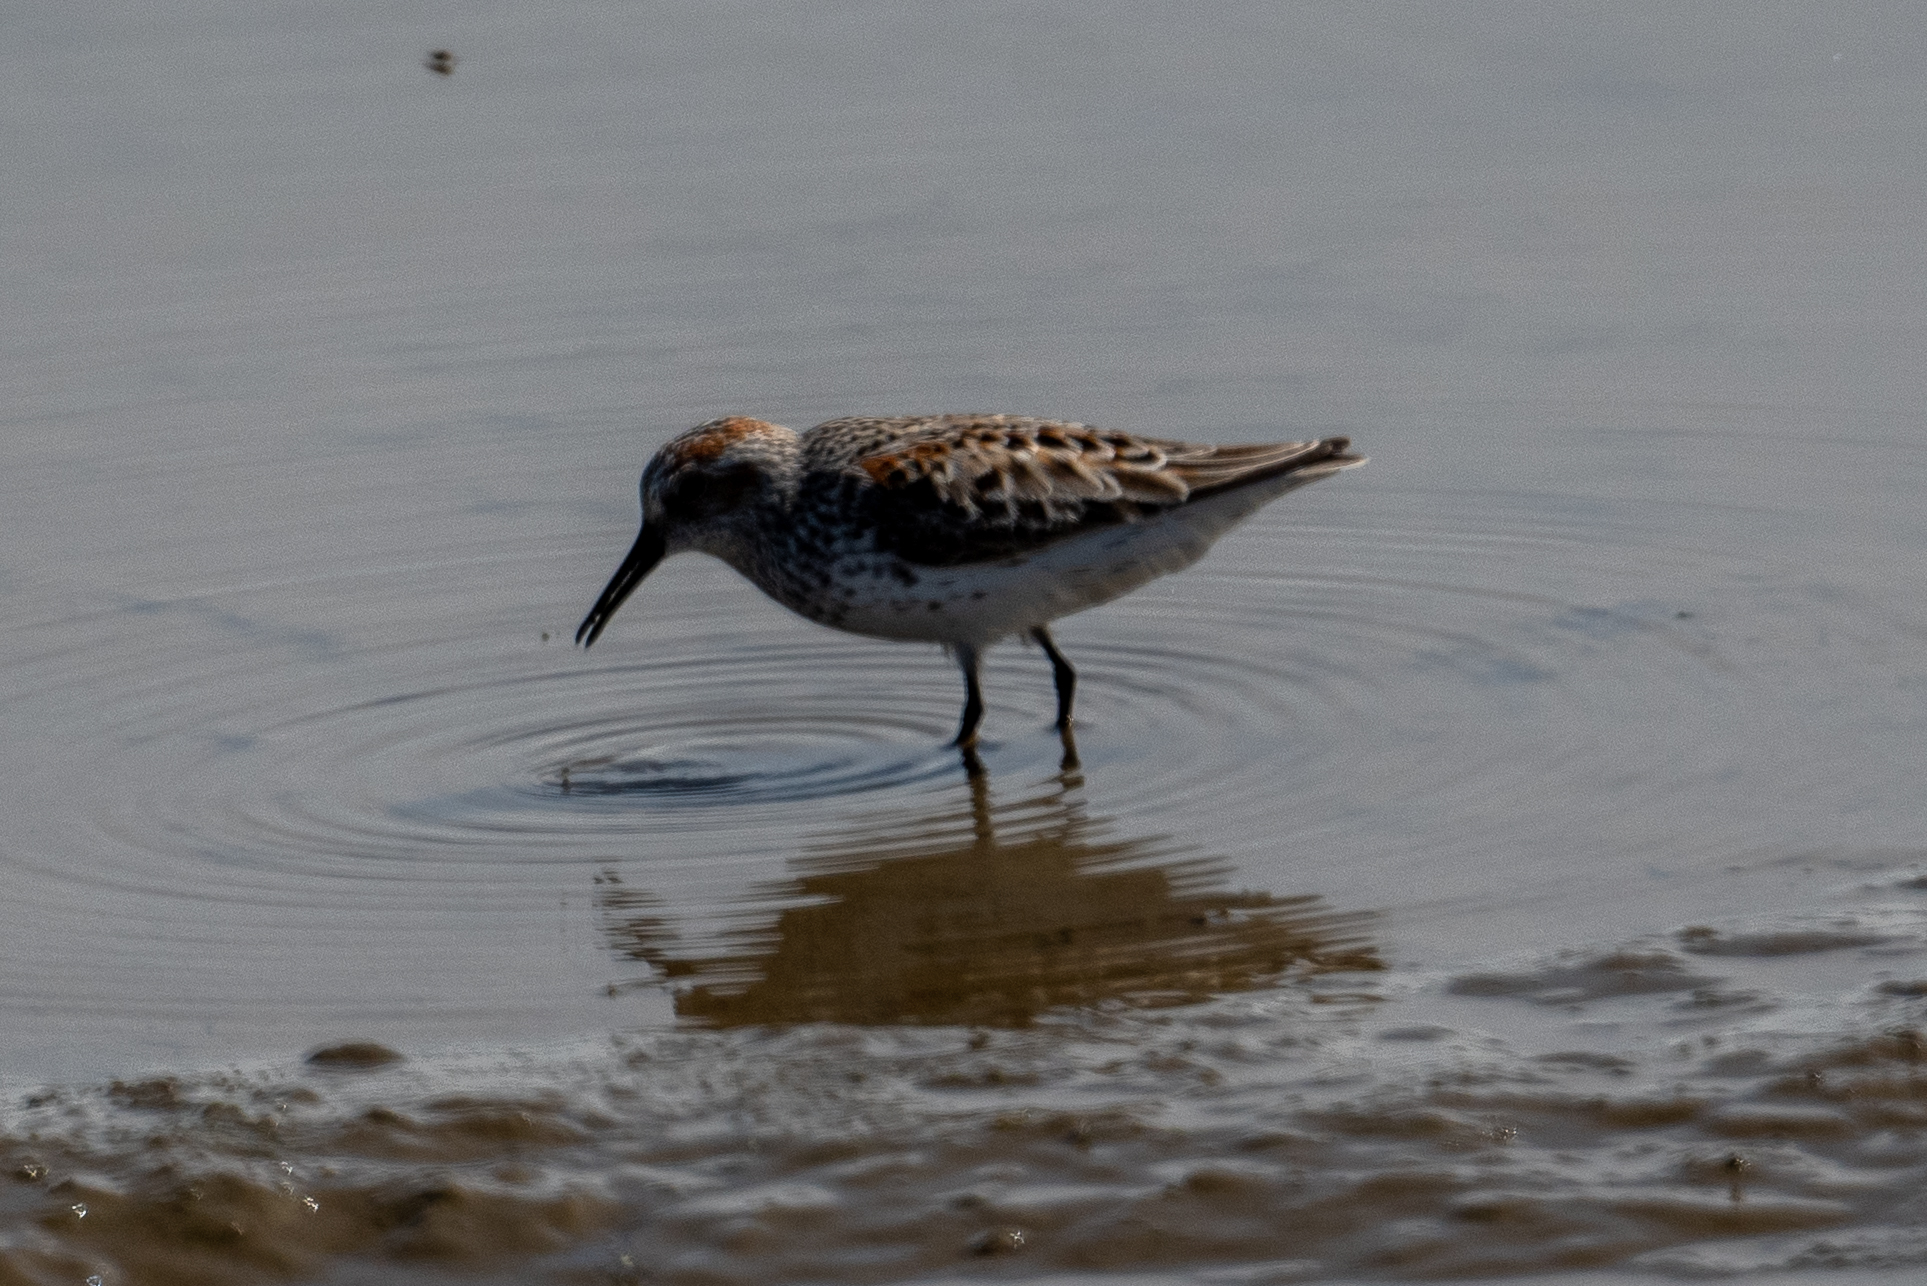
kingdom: Animalia
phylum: Chordata
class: Aves
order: Charadriiformes
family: Scolopacidae
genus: Calidris
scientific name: Calidris mauri
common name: Western sandpiper
